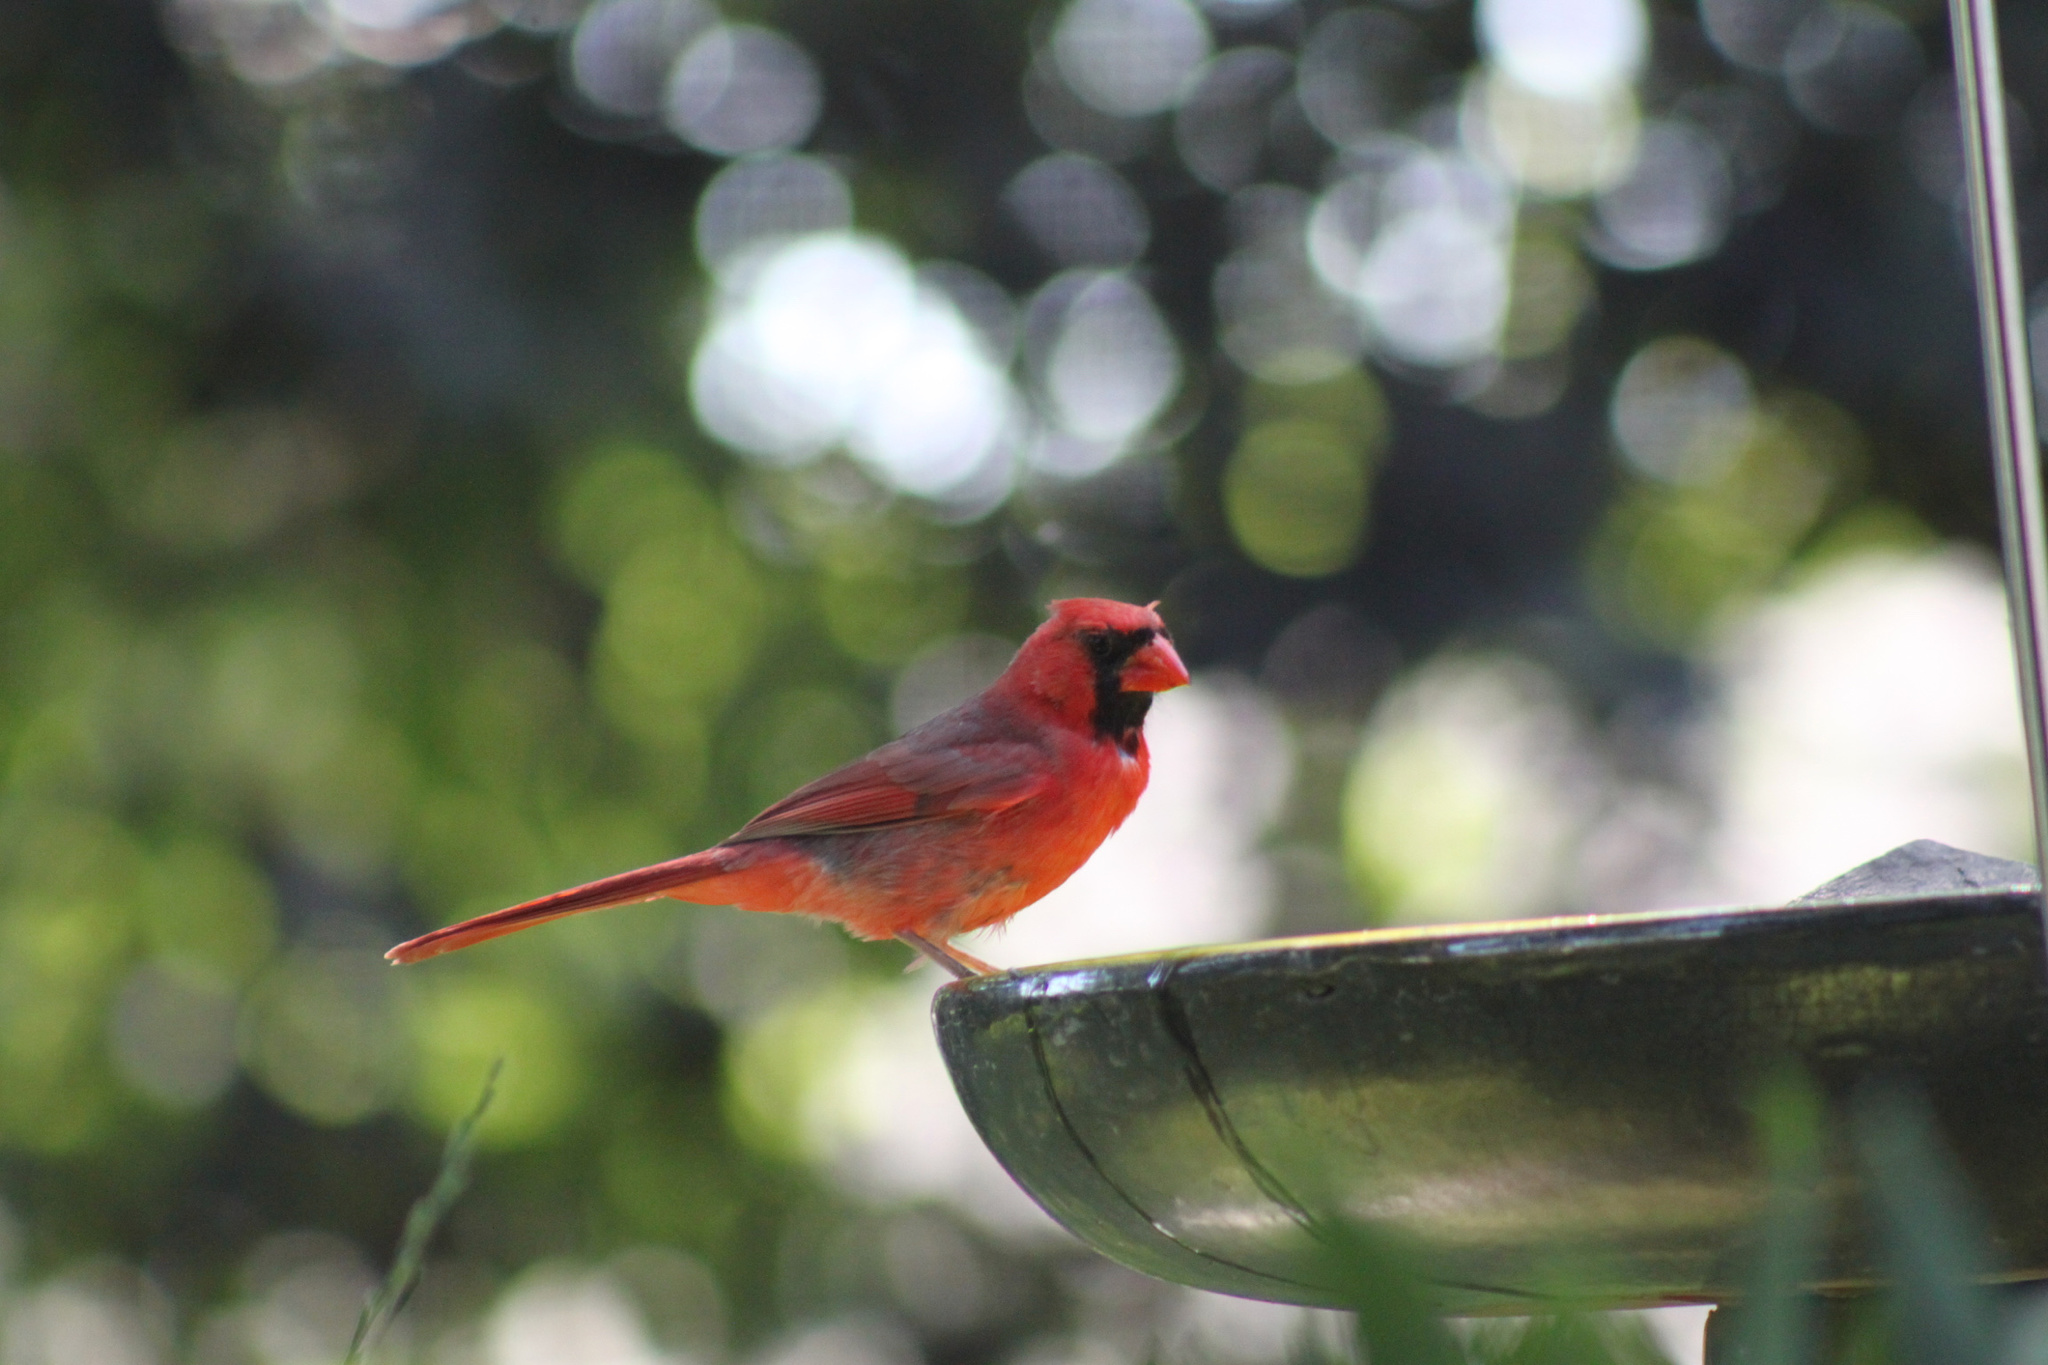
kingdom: Animalia
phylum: Chordata
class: Aves
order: Passeriformes
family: Cardinalidae
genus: Cardinalis
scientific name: Cardinalis cardinalis
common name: Northern cardinal
